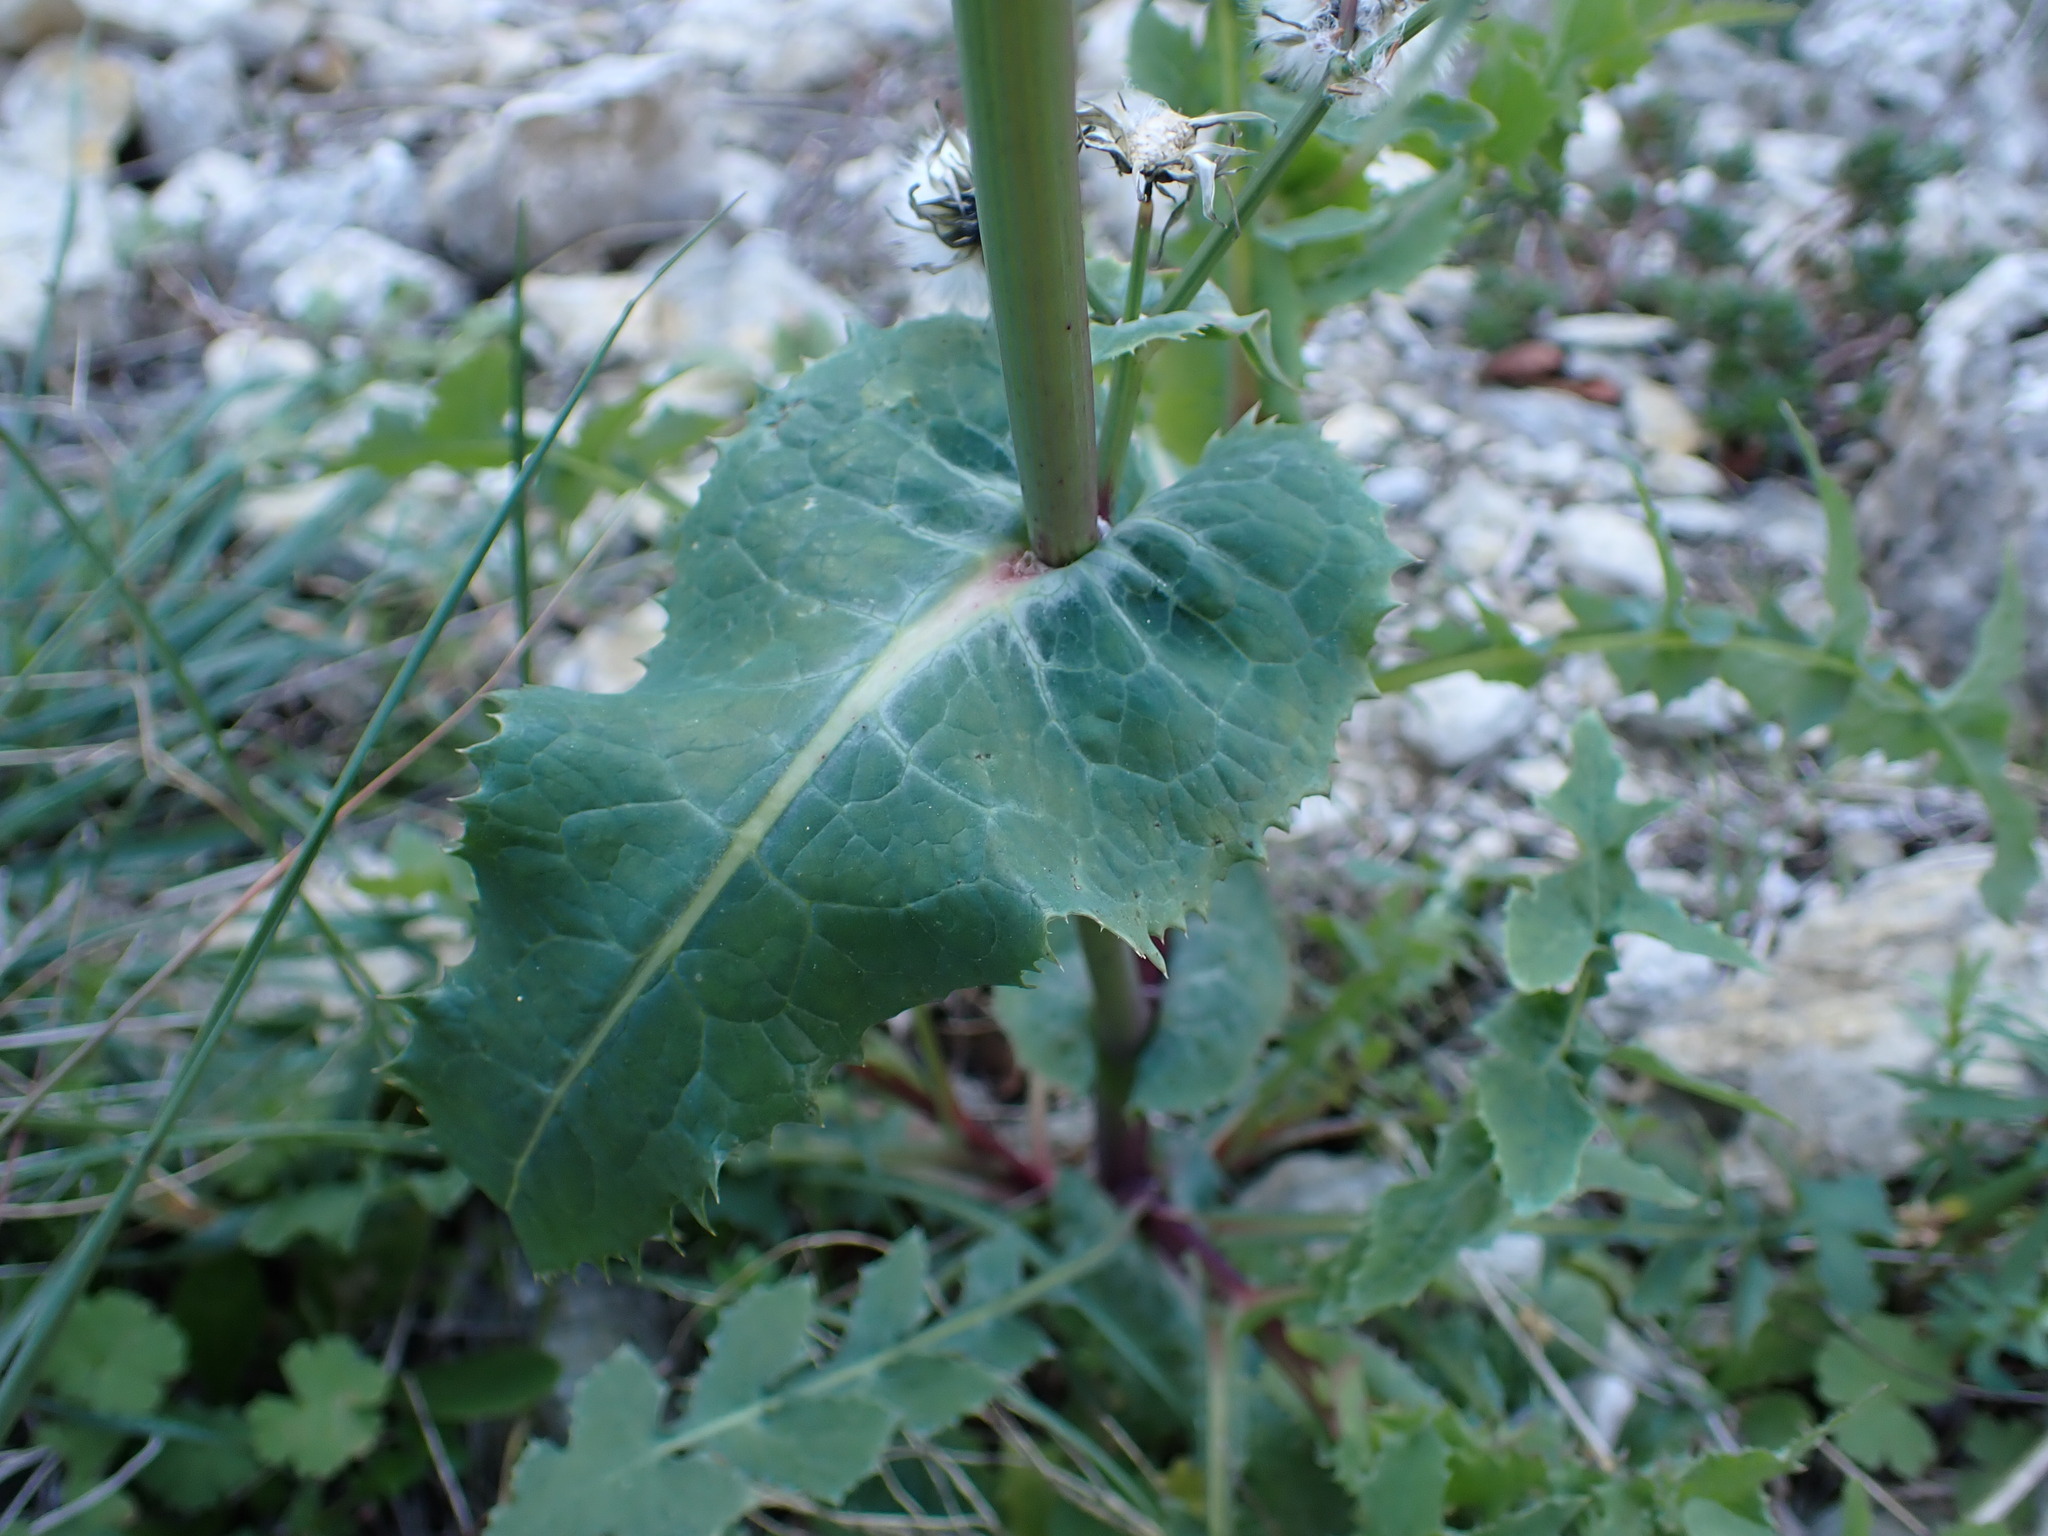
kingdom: Plantae
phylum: Tracheophyta
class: Magnoliopsida
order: Asterales
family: Asteraceae
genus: Sonchus
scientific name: Sonchus oleraceus
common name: Common sowthistle
